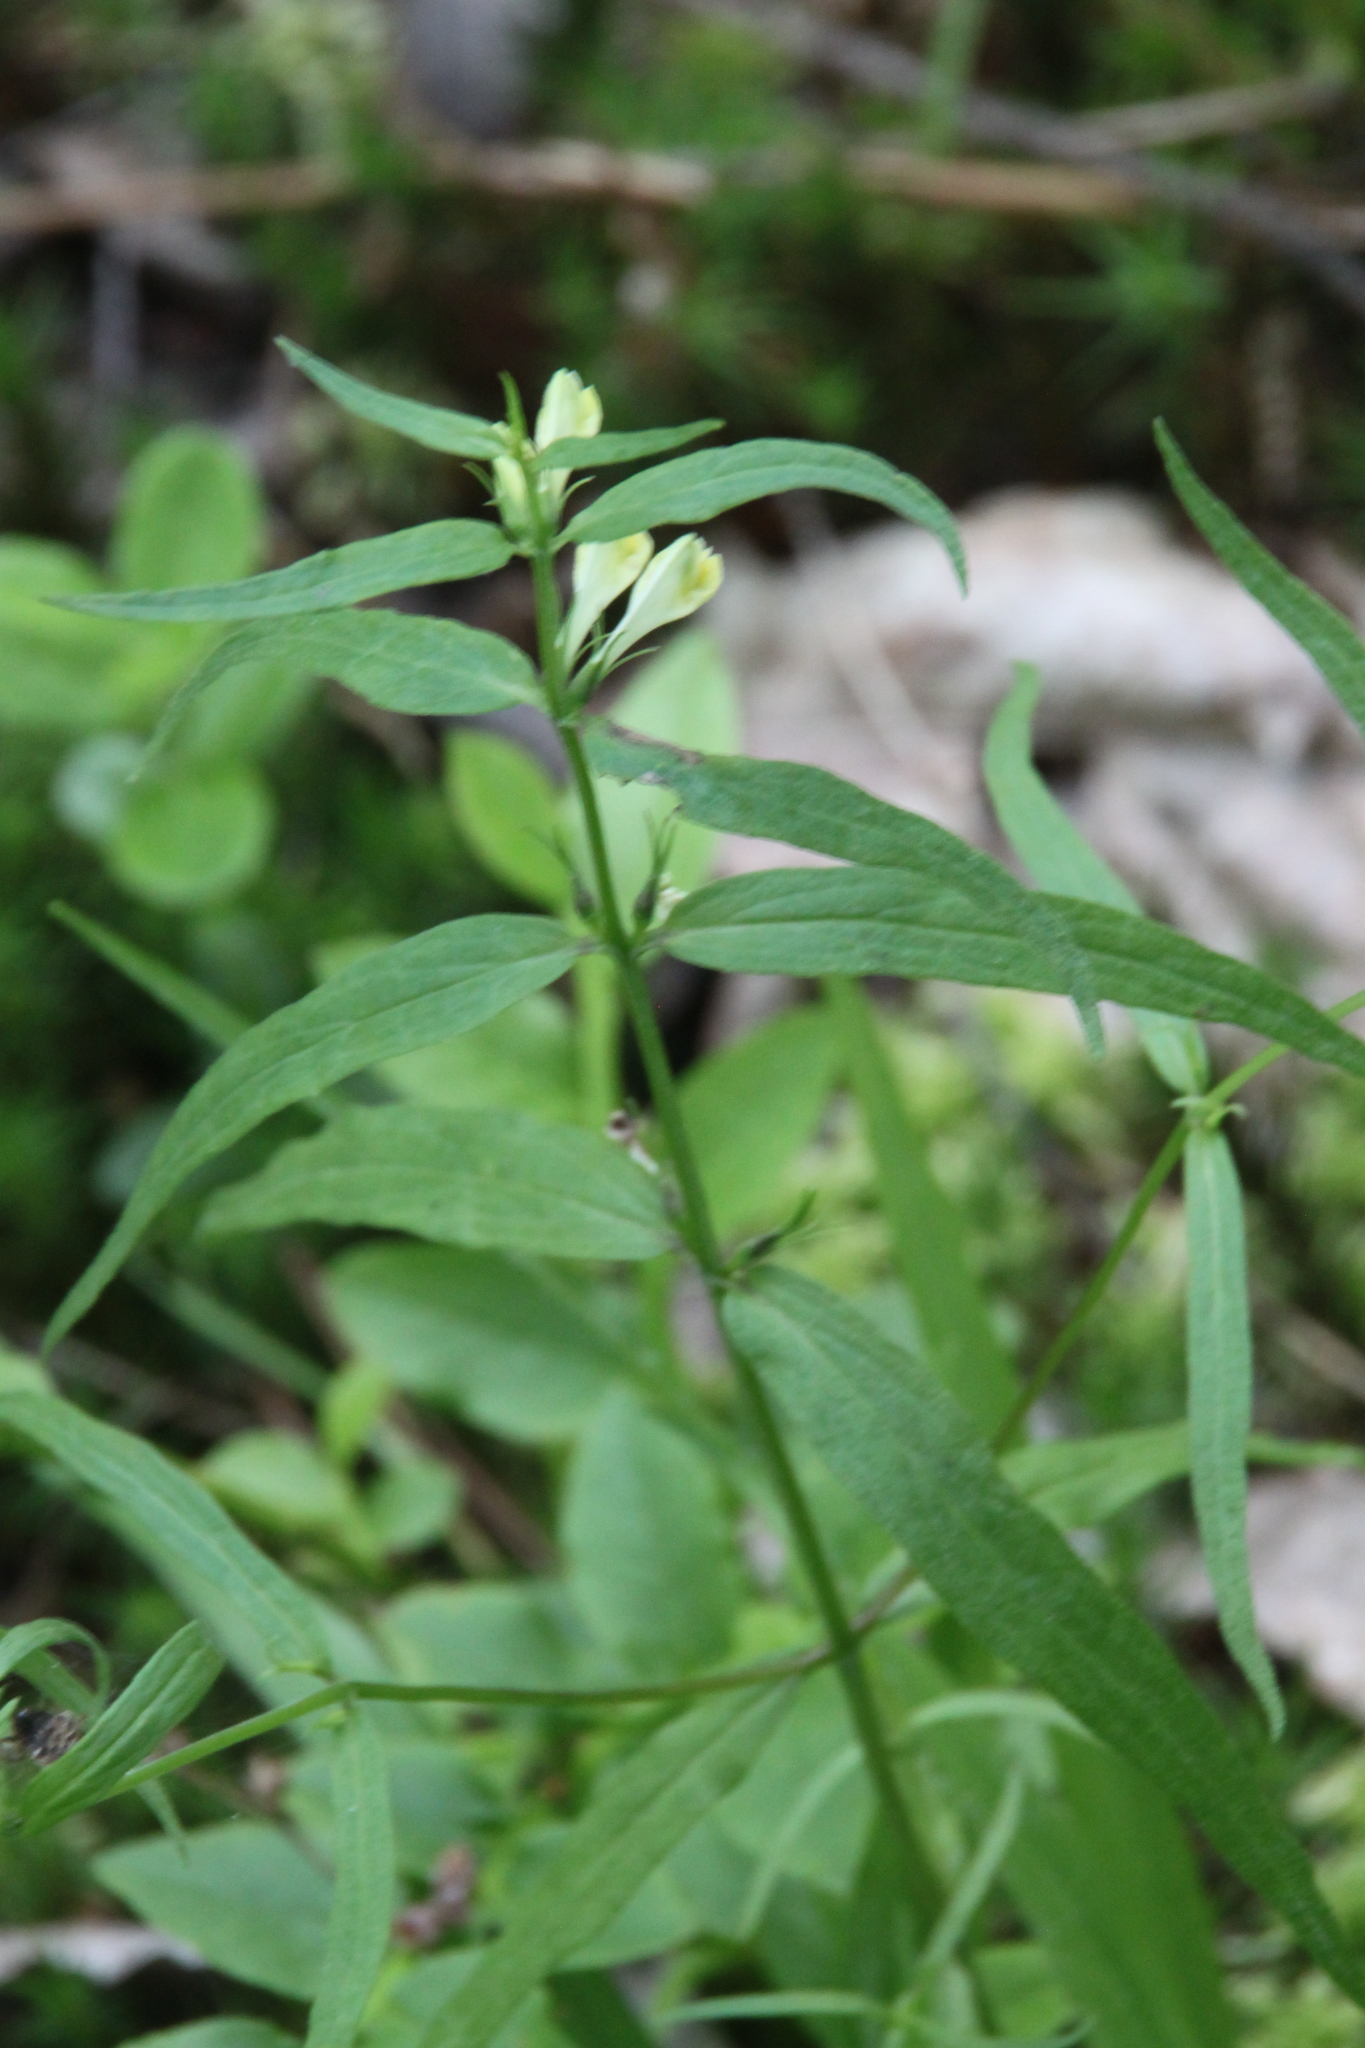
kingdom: Plantae
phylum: Tracheophyta
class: Magnoliopsida
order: Lamiales
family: Orobanchaceae
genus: Melampyrum
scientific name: Melampyrum pratense
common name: Common cow-wheat
